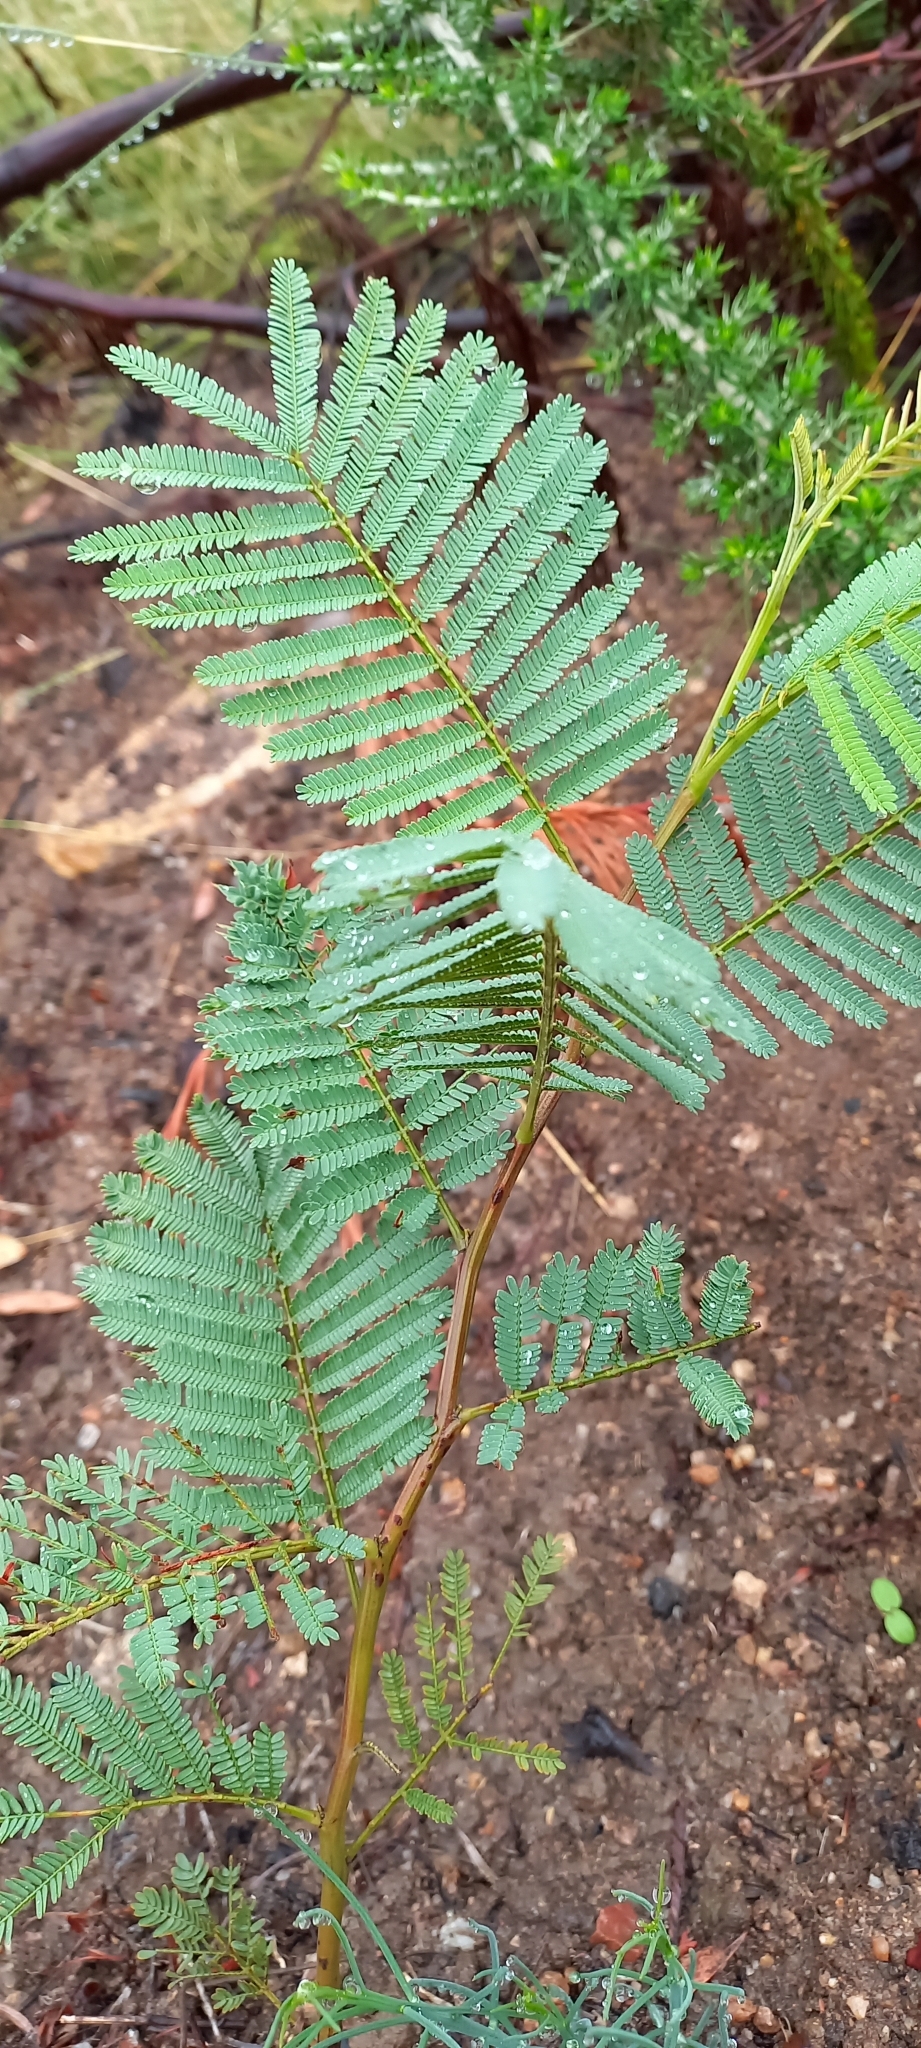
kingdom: Plantae
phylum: Tracheophyta
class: Magnoliopsida
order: Fabales
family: Fabaceae
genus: Acacia
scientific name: Acacia mearnsii
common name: Black wattle
